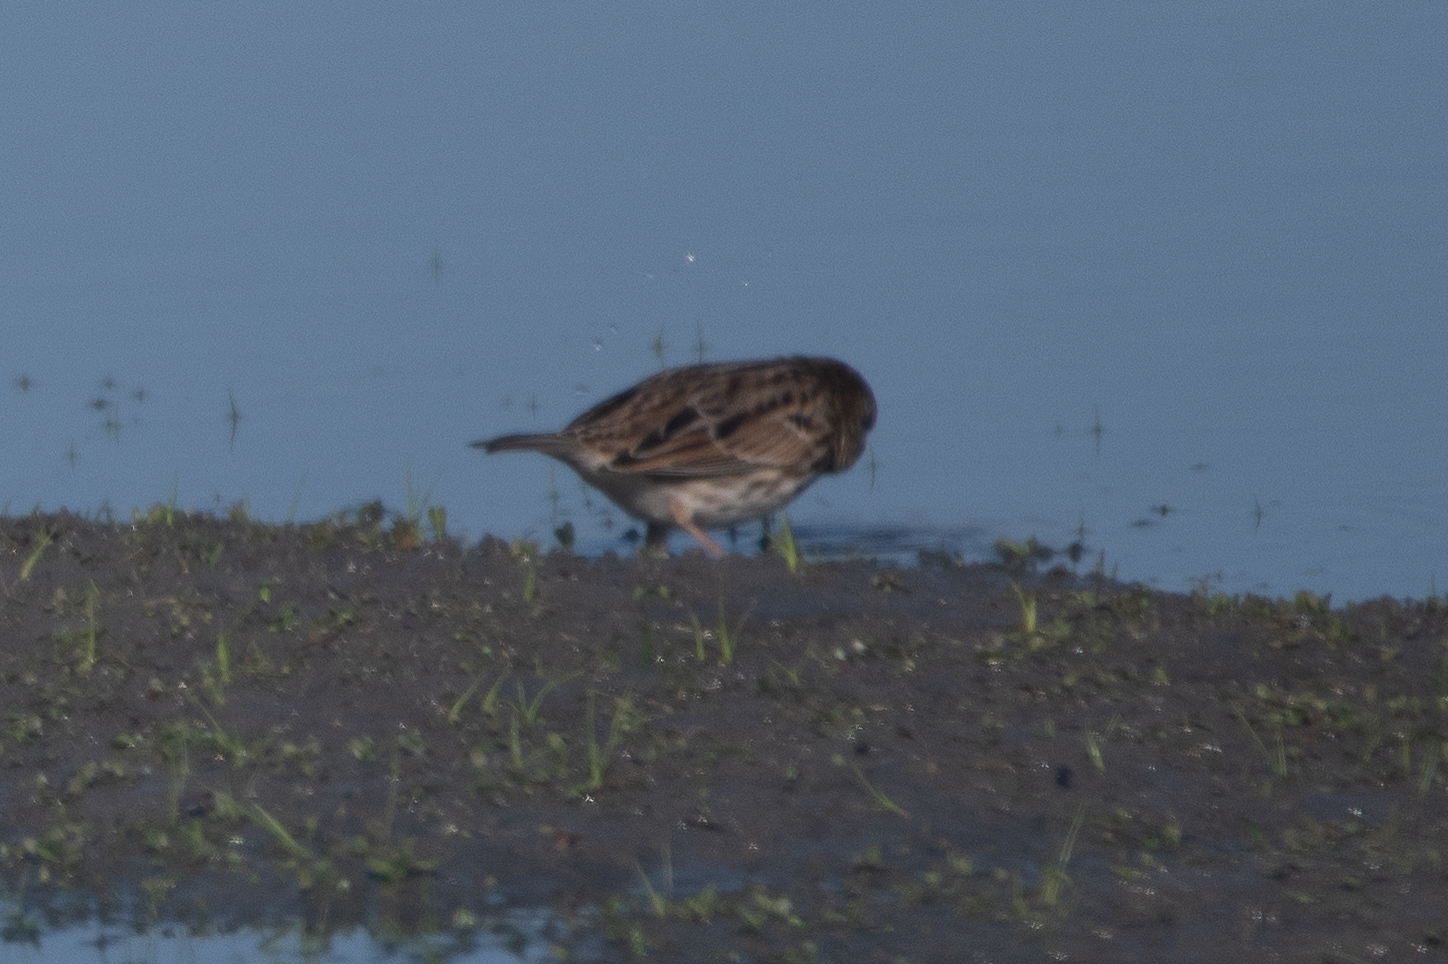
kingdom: Animalia
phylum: Chordata
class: Aves
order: Passeriformes
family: Passerellidae
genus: Passerculus
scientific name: Passerculus sandwichensis
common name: Savannah sparrow
